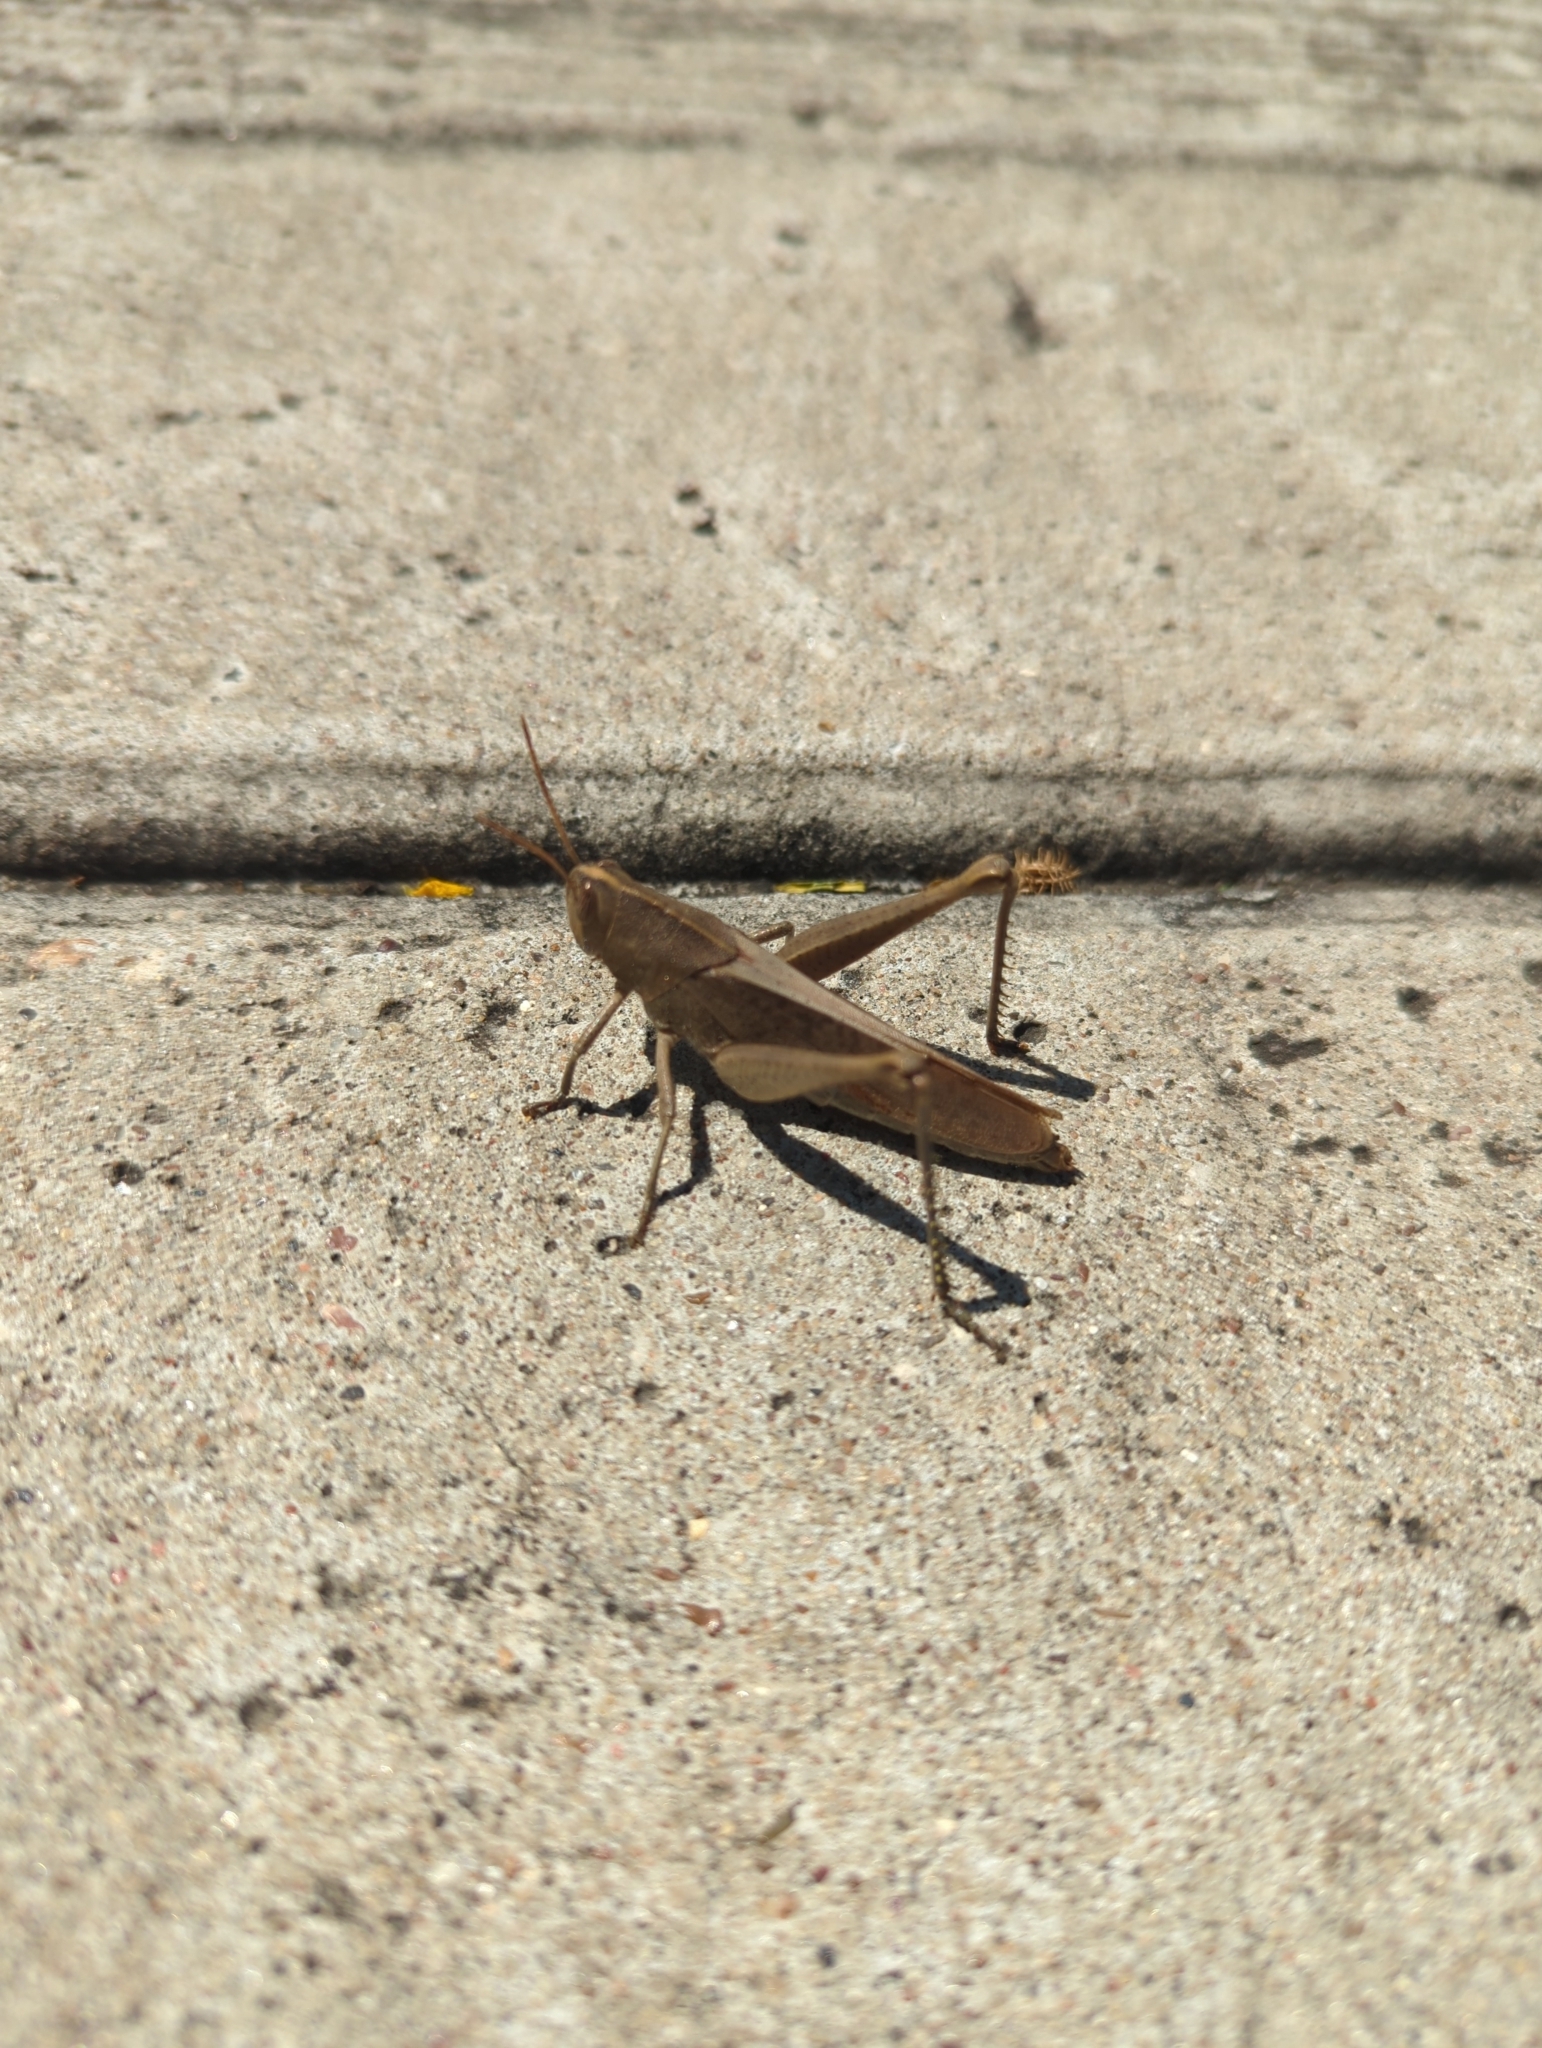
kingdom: Animalia
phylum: Arthropoda
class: Insecta
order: Orthoptera
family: Acrididae
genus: Schistocerca
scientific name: Schistocerca damnifica
